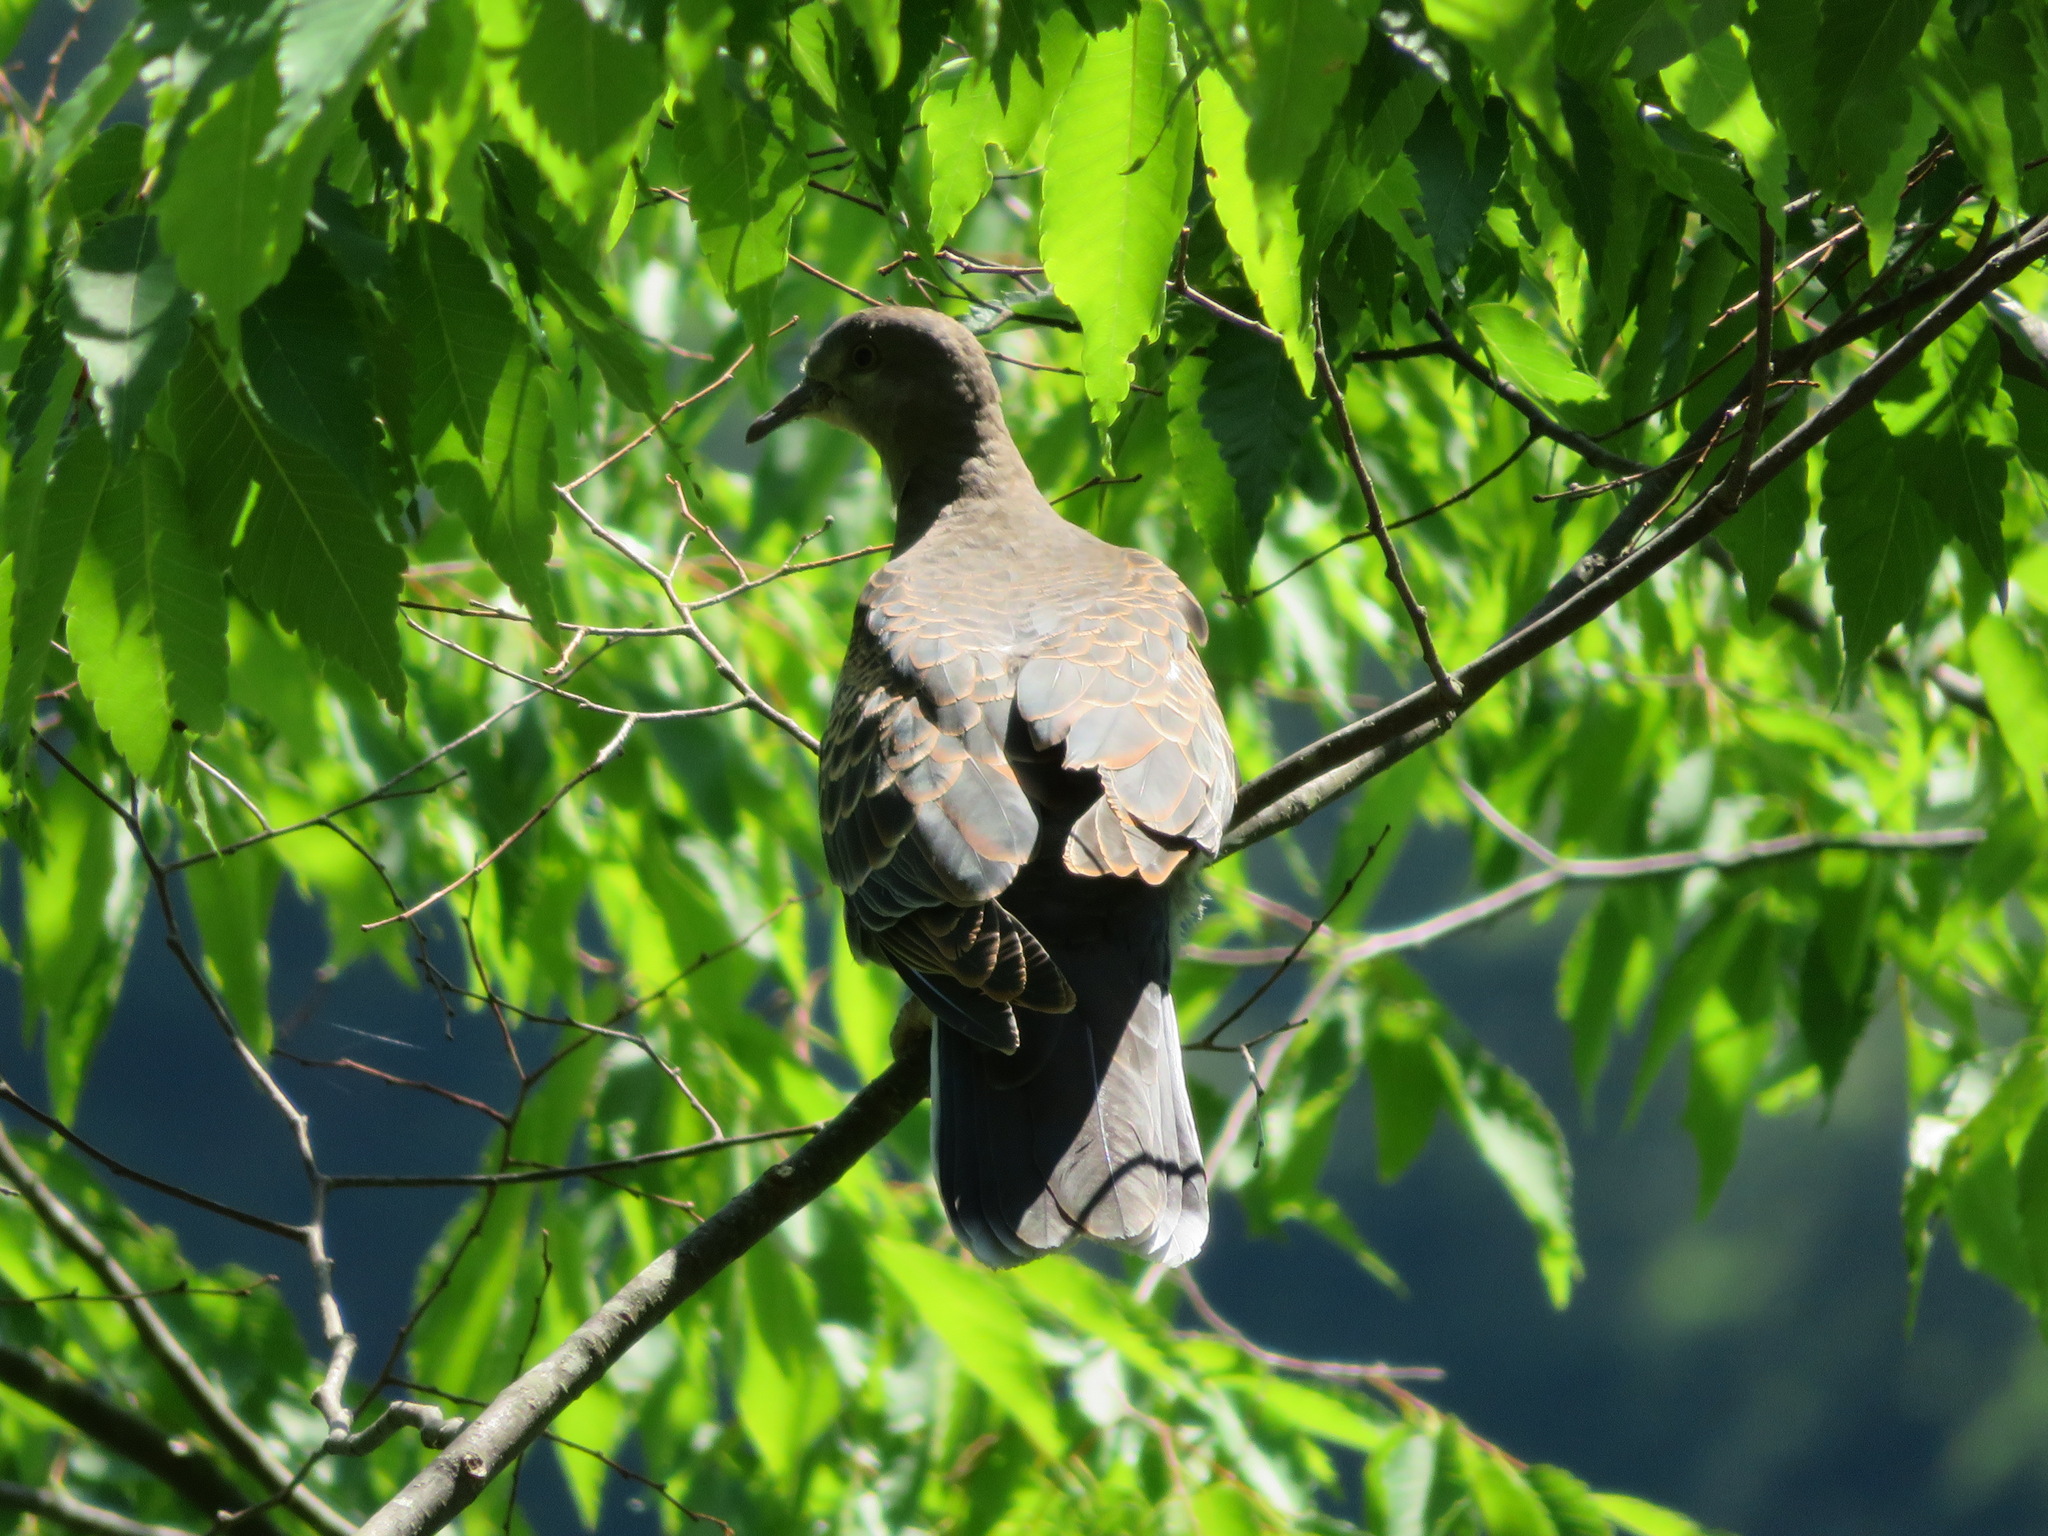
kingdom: Animalia
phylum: Chordata
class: Aves
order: Columbiformes
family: Columbidae
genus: Streptopelia
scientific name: Streptopelia orientalis
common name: Oriental turtle dove
